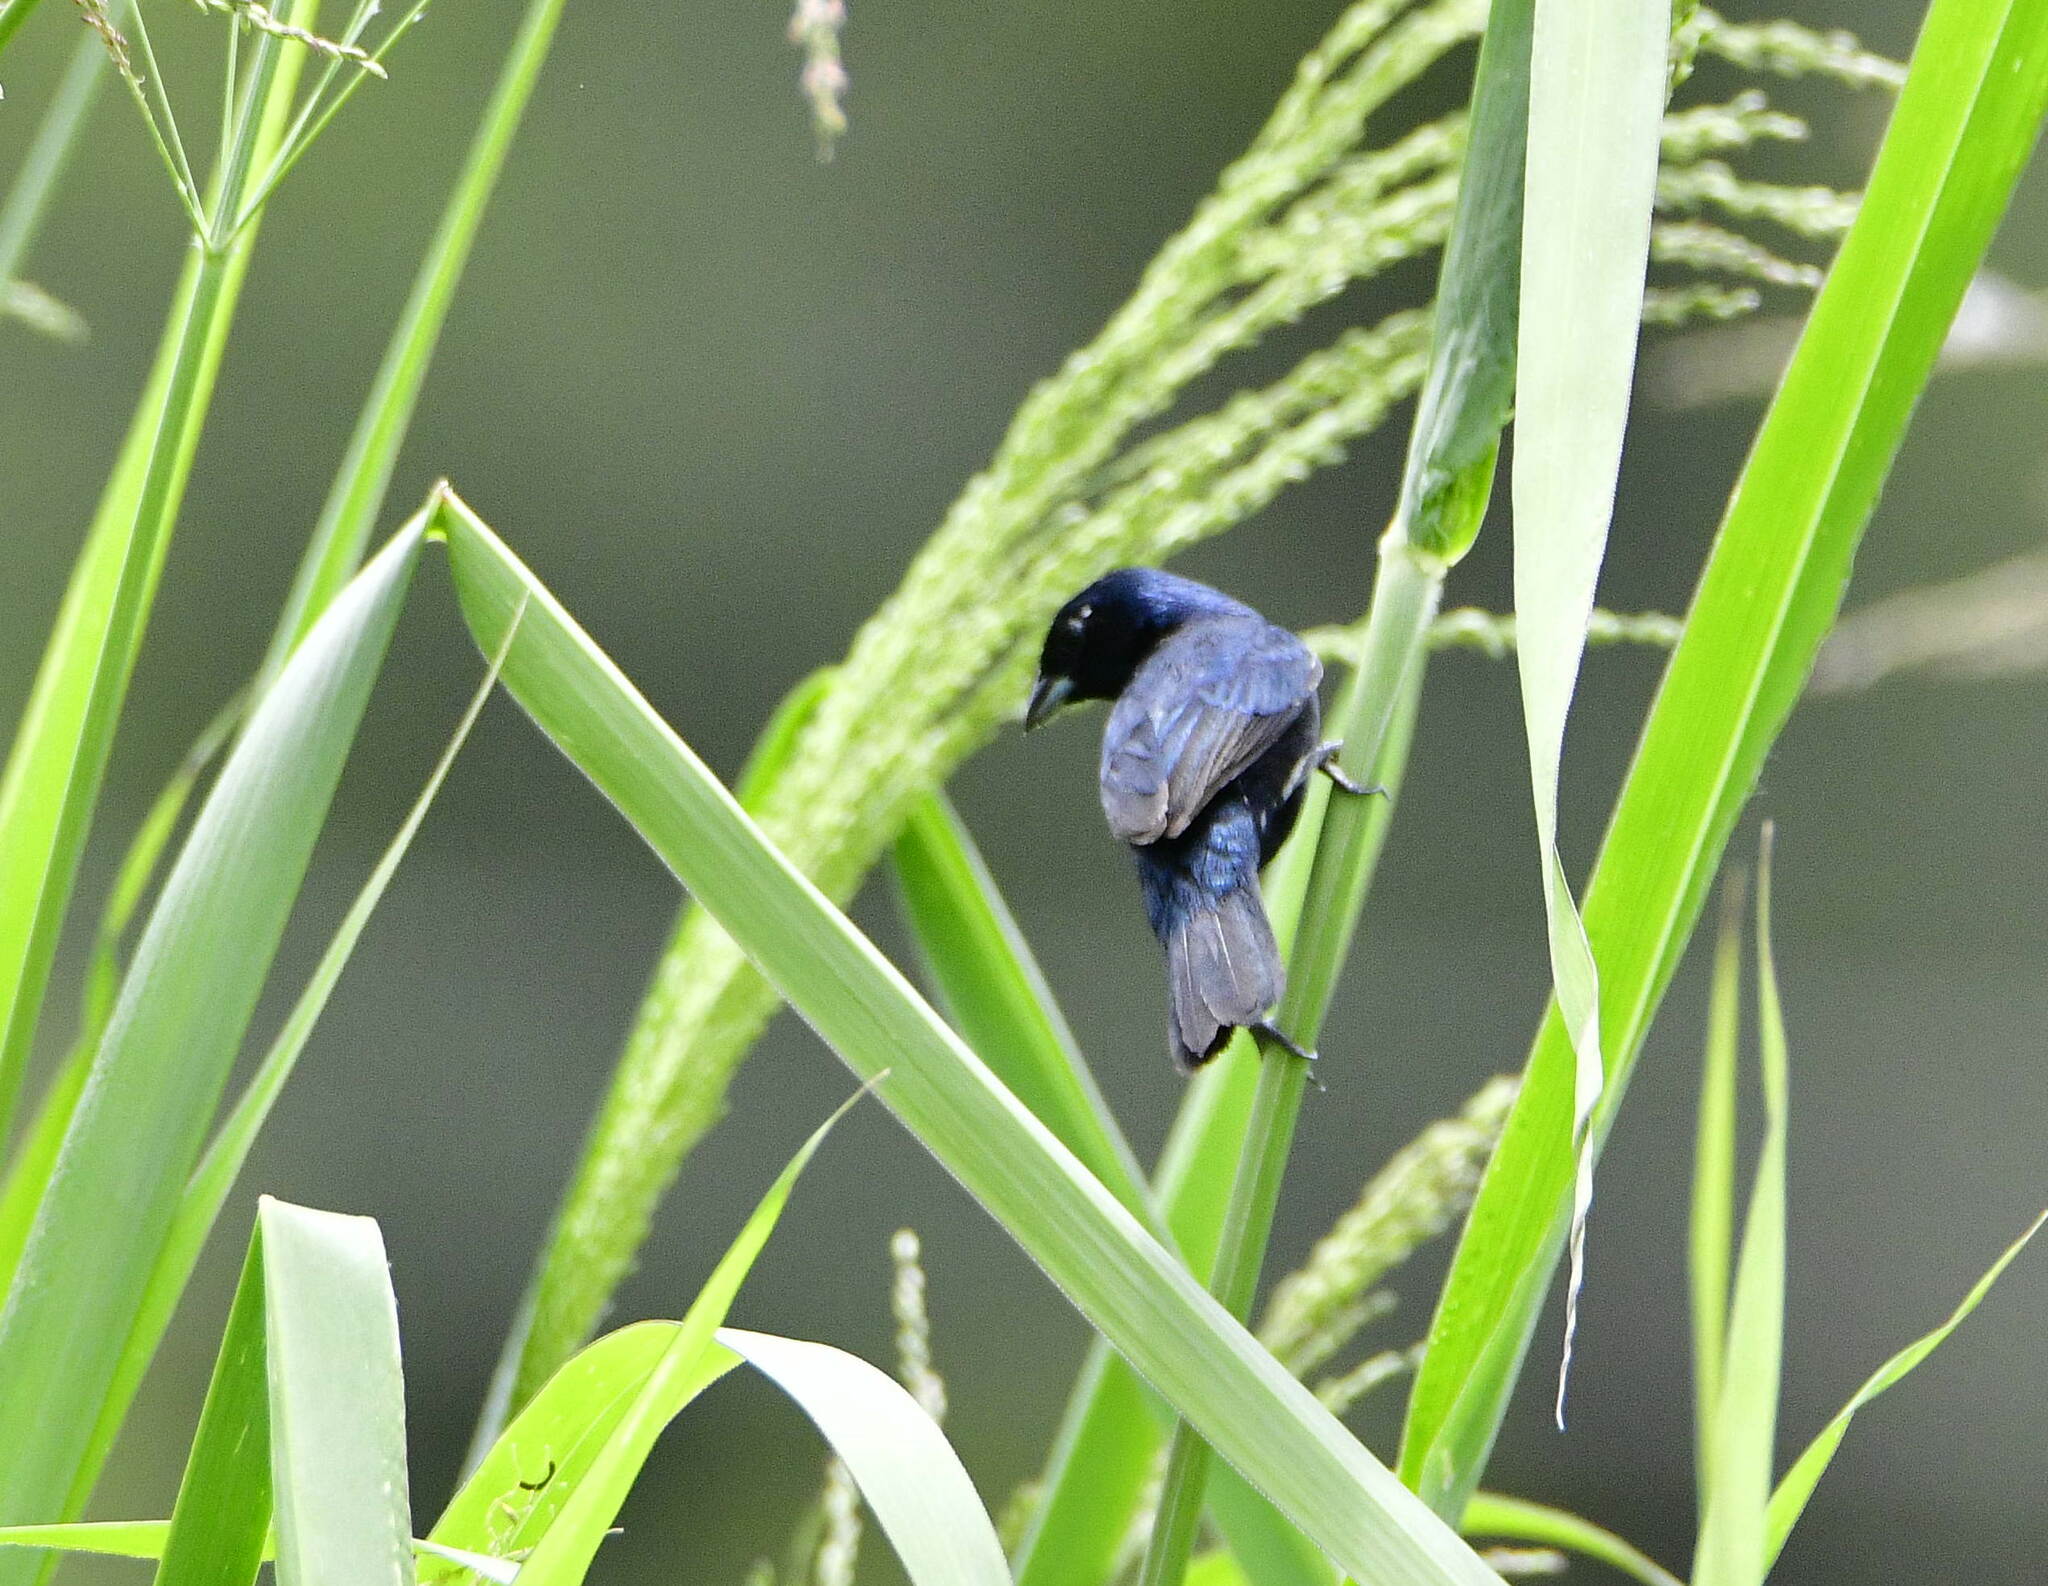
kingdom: Animalia
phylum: Chordata
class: Aves
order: Passeriformes
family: Thraupidae
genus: Volatinia
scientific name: Volatinia jacarina
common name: Blue-black grassquit
